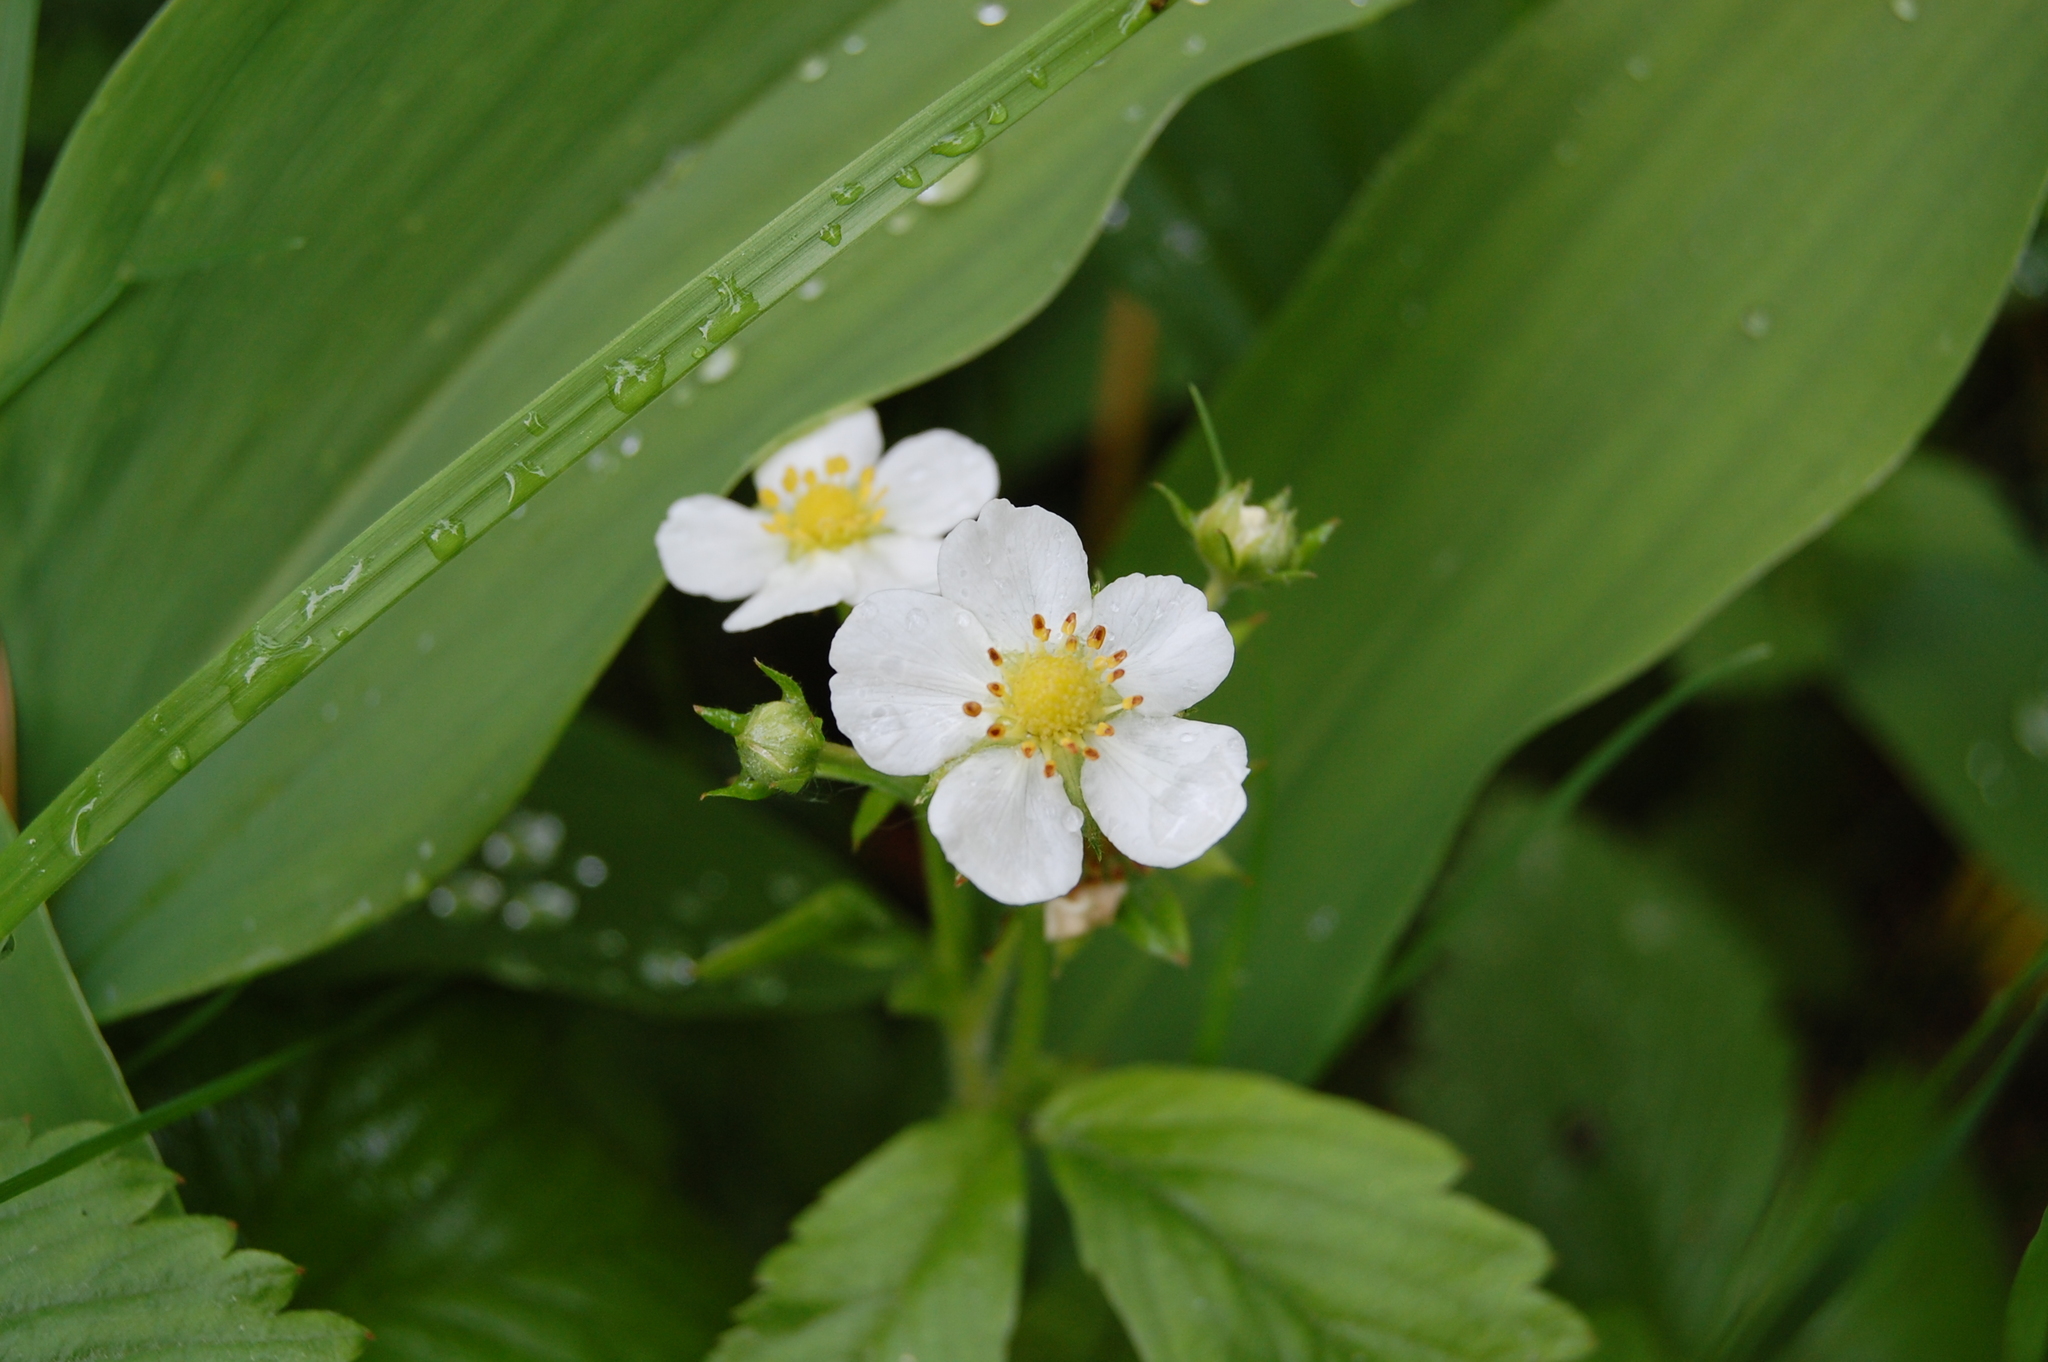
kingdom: Plantae
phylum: Tracheophyta
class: Magnoliopsida
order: Rosales
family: Rosaceae
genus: Fragaria
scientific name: Fragaria vesca
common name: Wild strawberry
